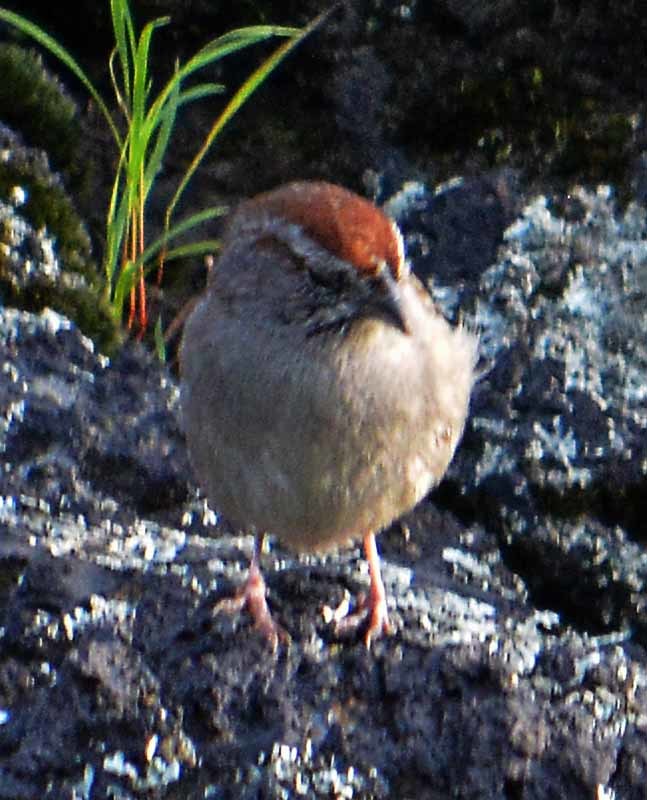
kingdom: Animalia
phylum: Chordata
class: Aves
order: Passeriformes
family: Passerellidae
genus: Aimophila
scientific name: Aimophila ruficeps
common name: Rufous-crowned sparrow
